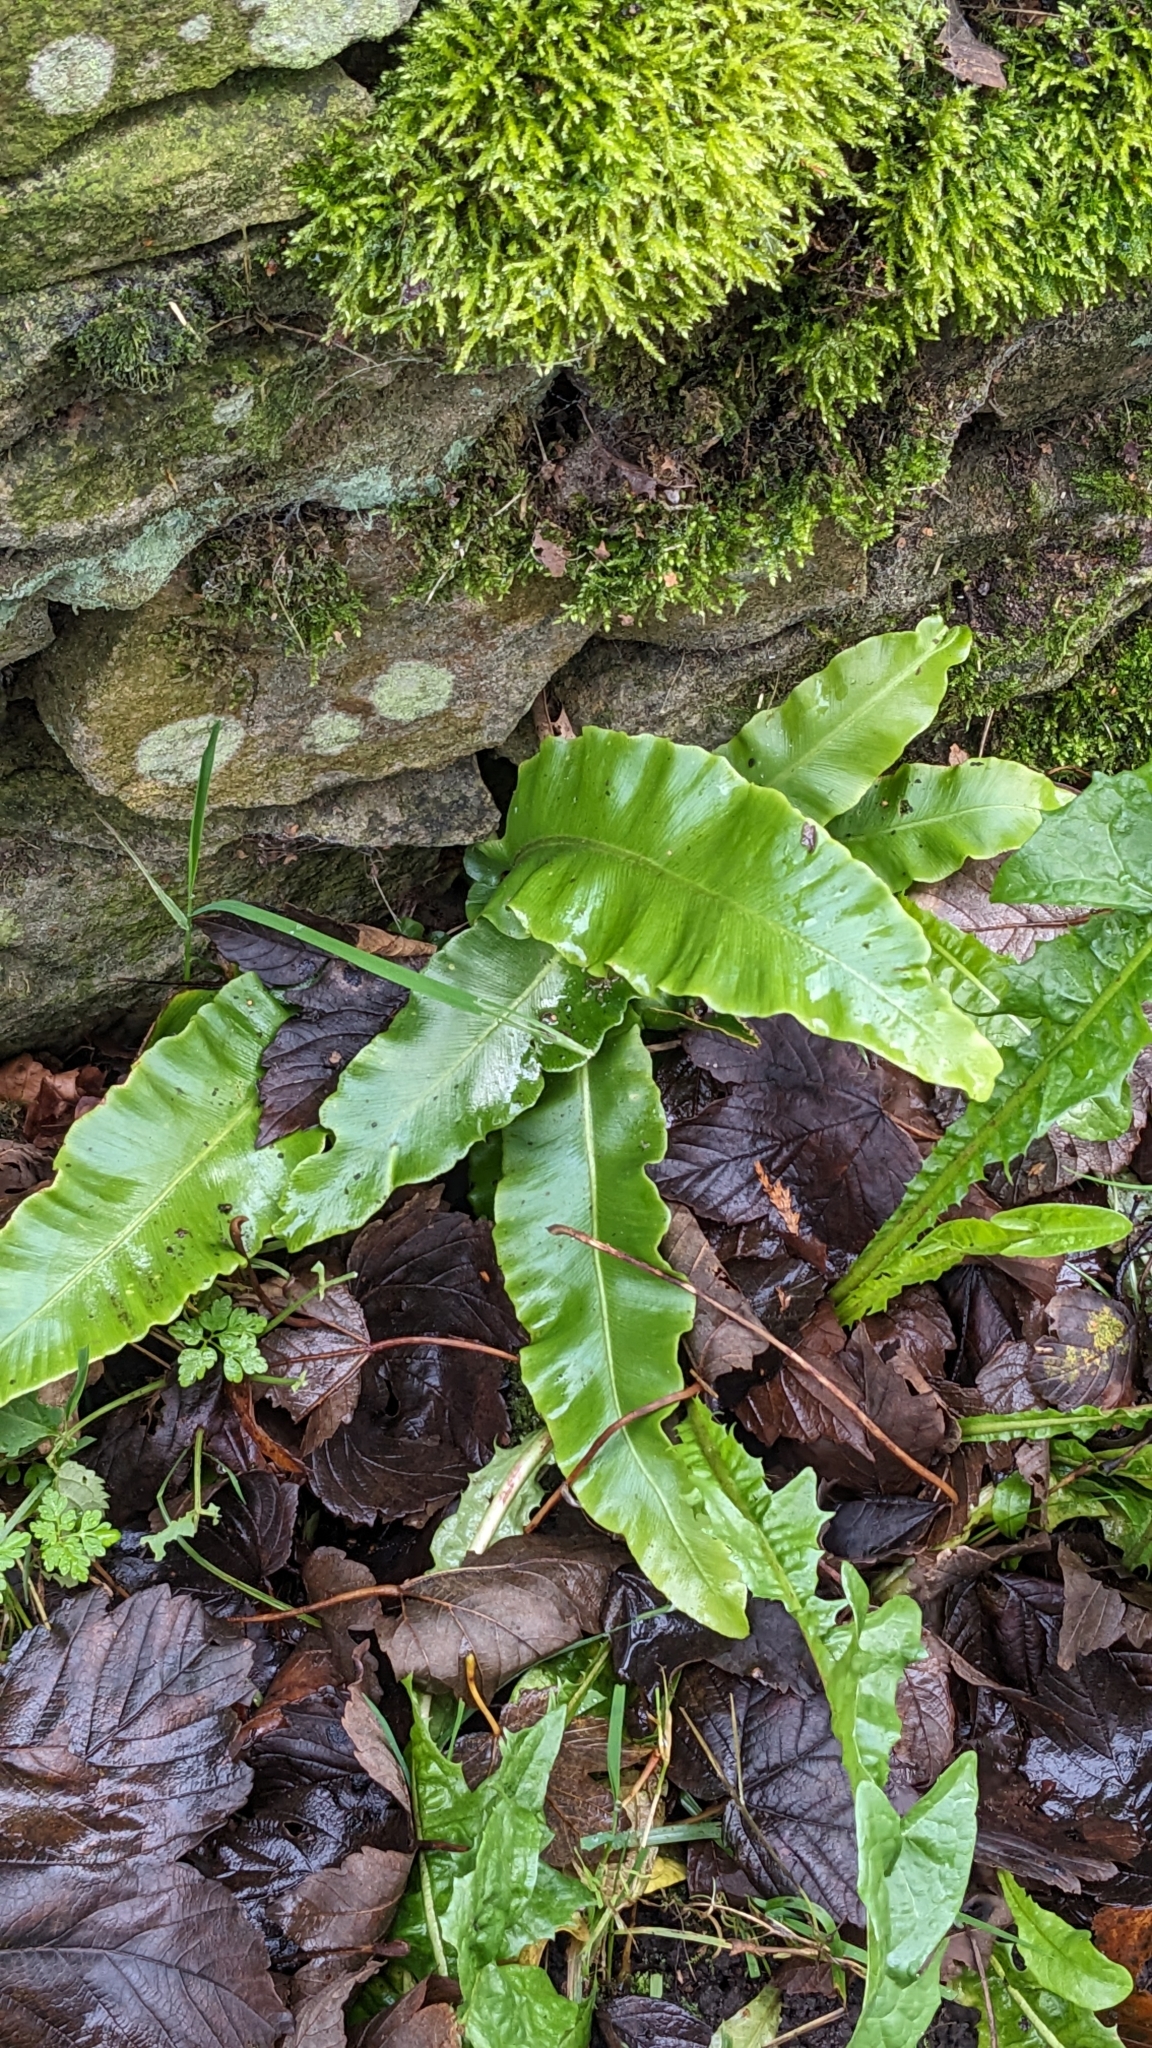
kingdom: Plantae
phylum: Tracheophyta
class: Polypodiopsida
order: Polypodiales
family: Aspleniaceae
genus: Asplenium
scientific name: Asplenium scolopendrium
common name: Hart's-tongue fern
